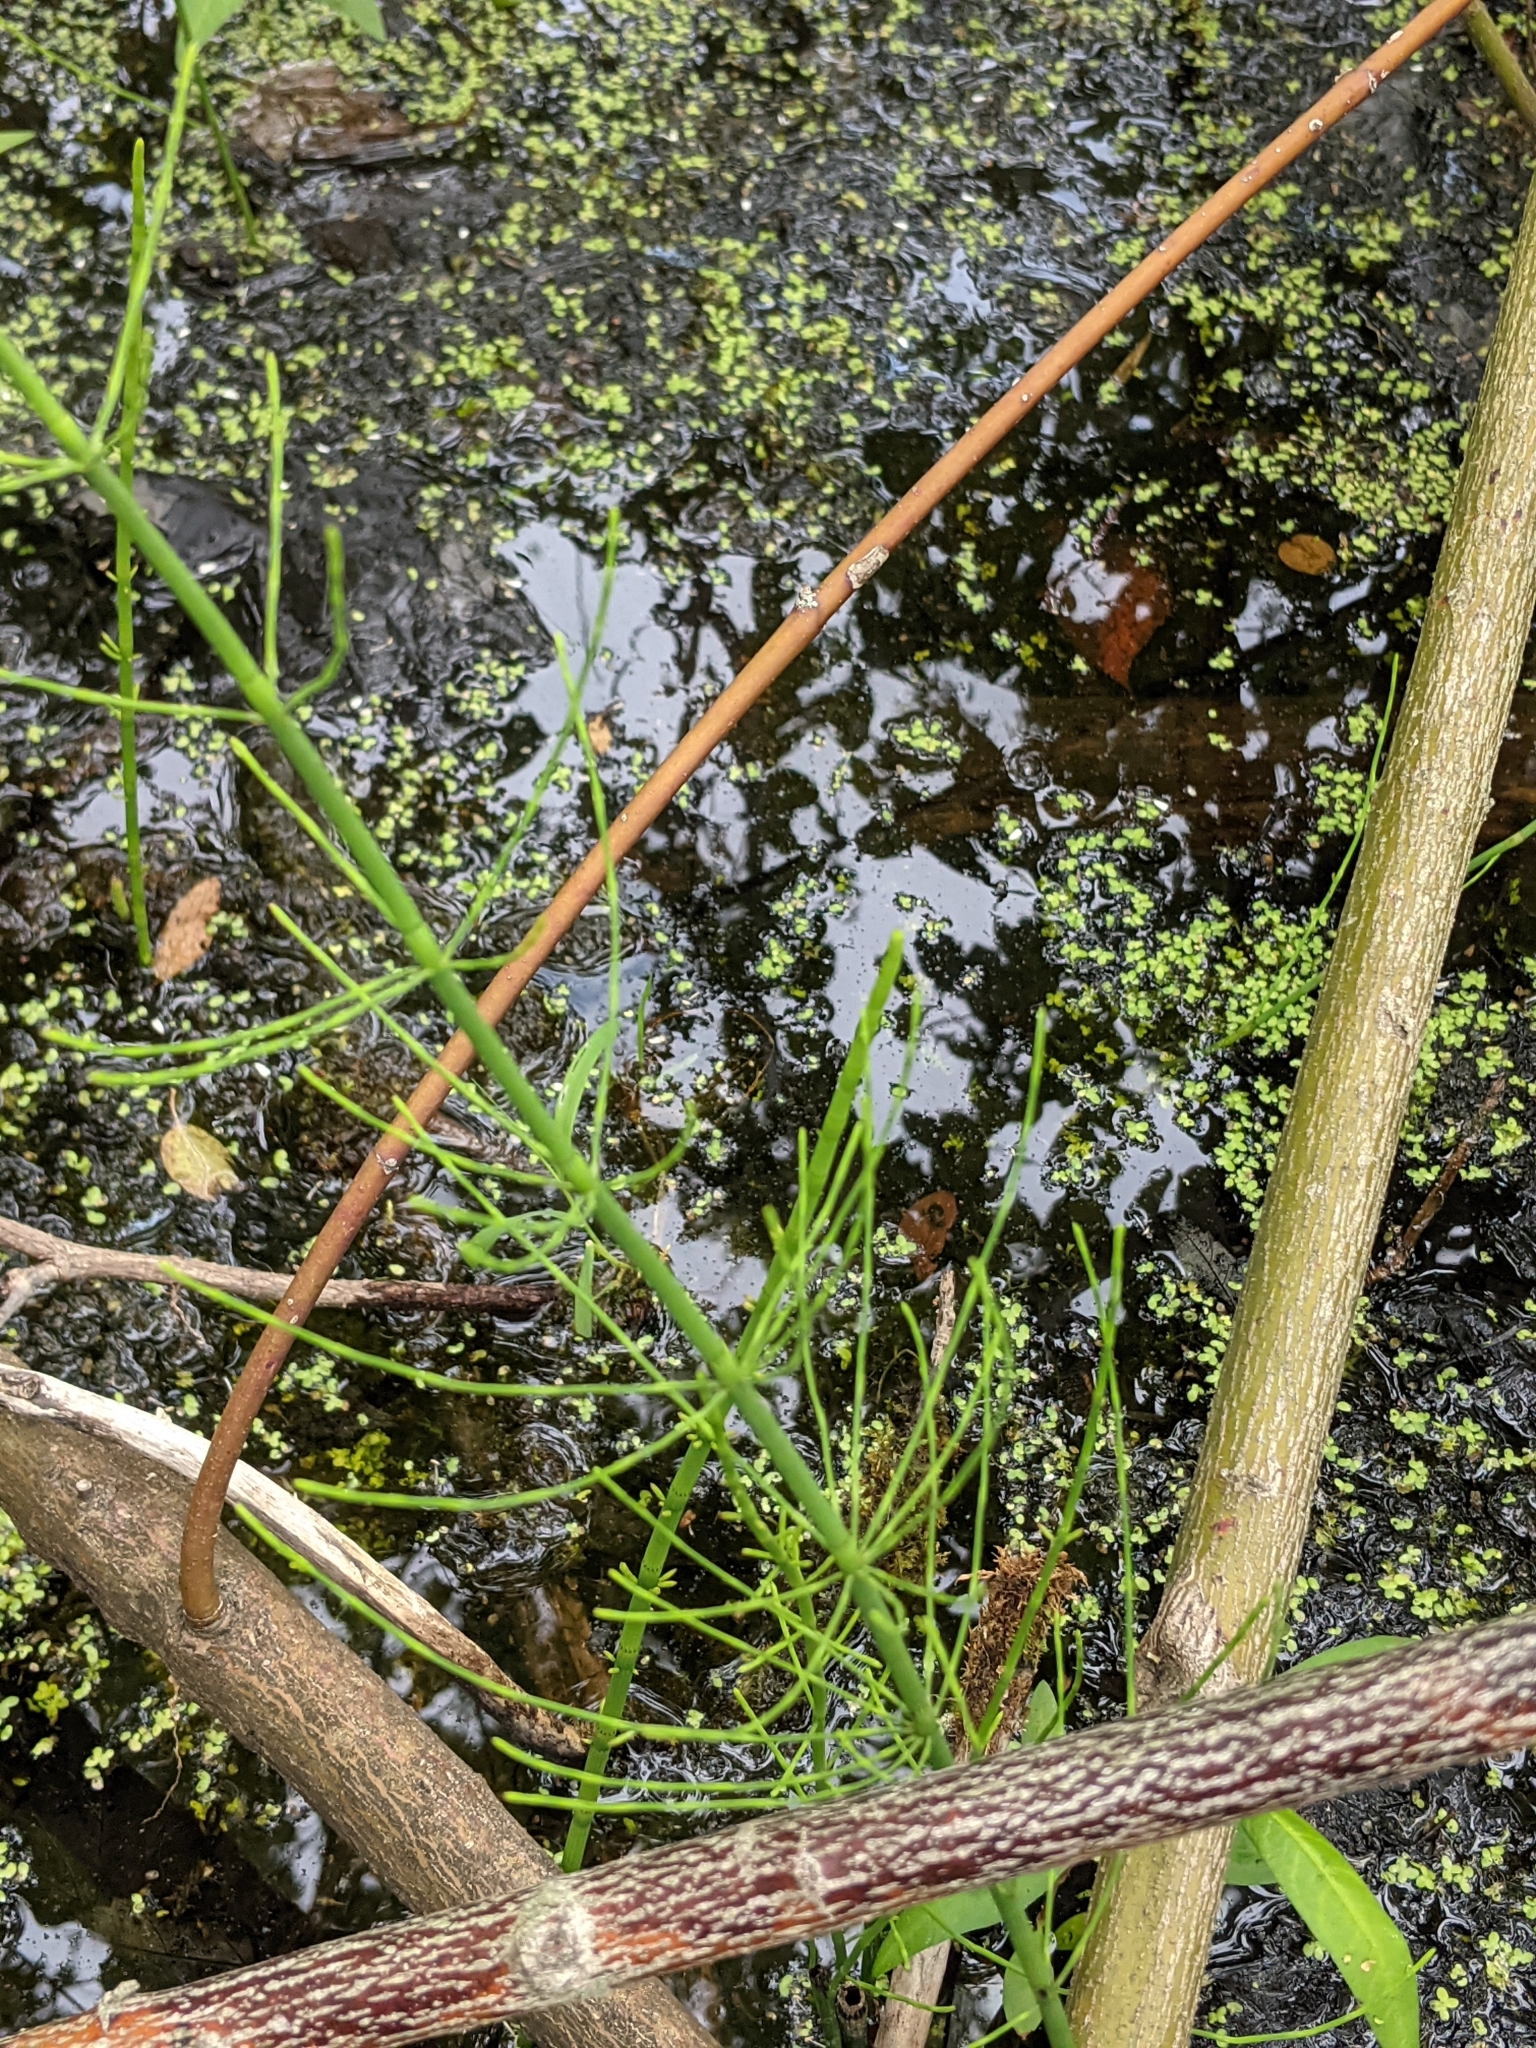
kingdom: Plantae
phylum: Tracheophyta
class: Polypodiopsida
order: Equisetales
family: Equisetaceae
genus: Equisetum
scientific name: Equisetum fluviatile
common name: Water horsetail
